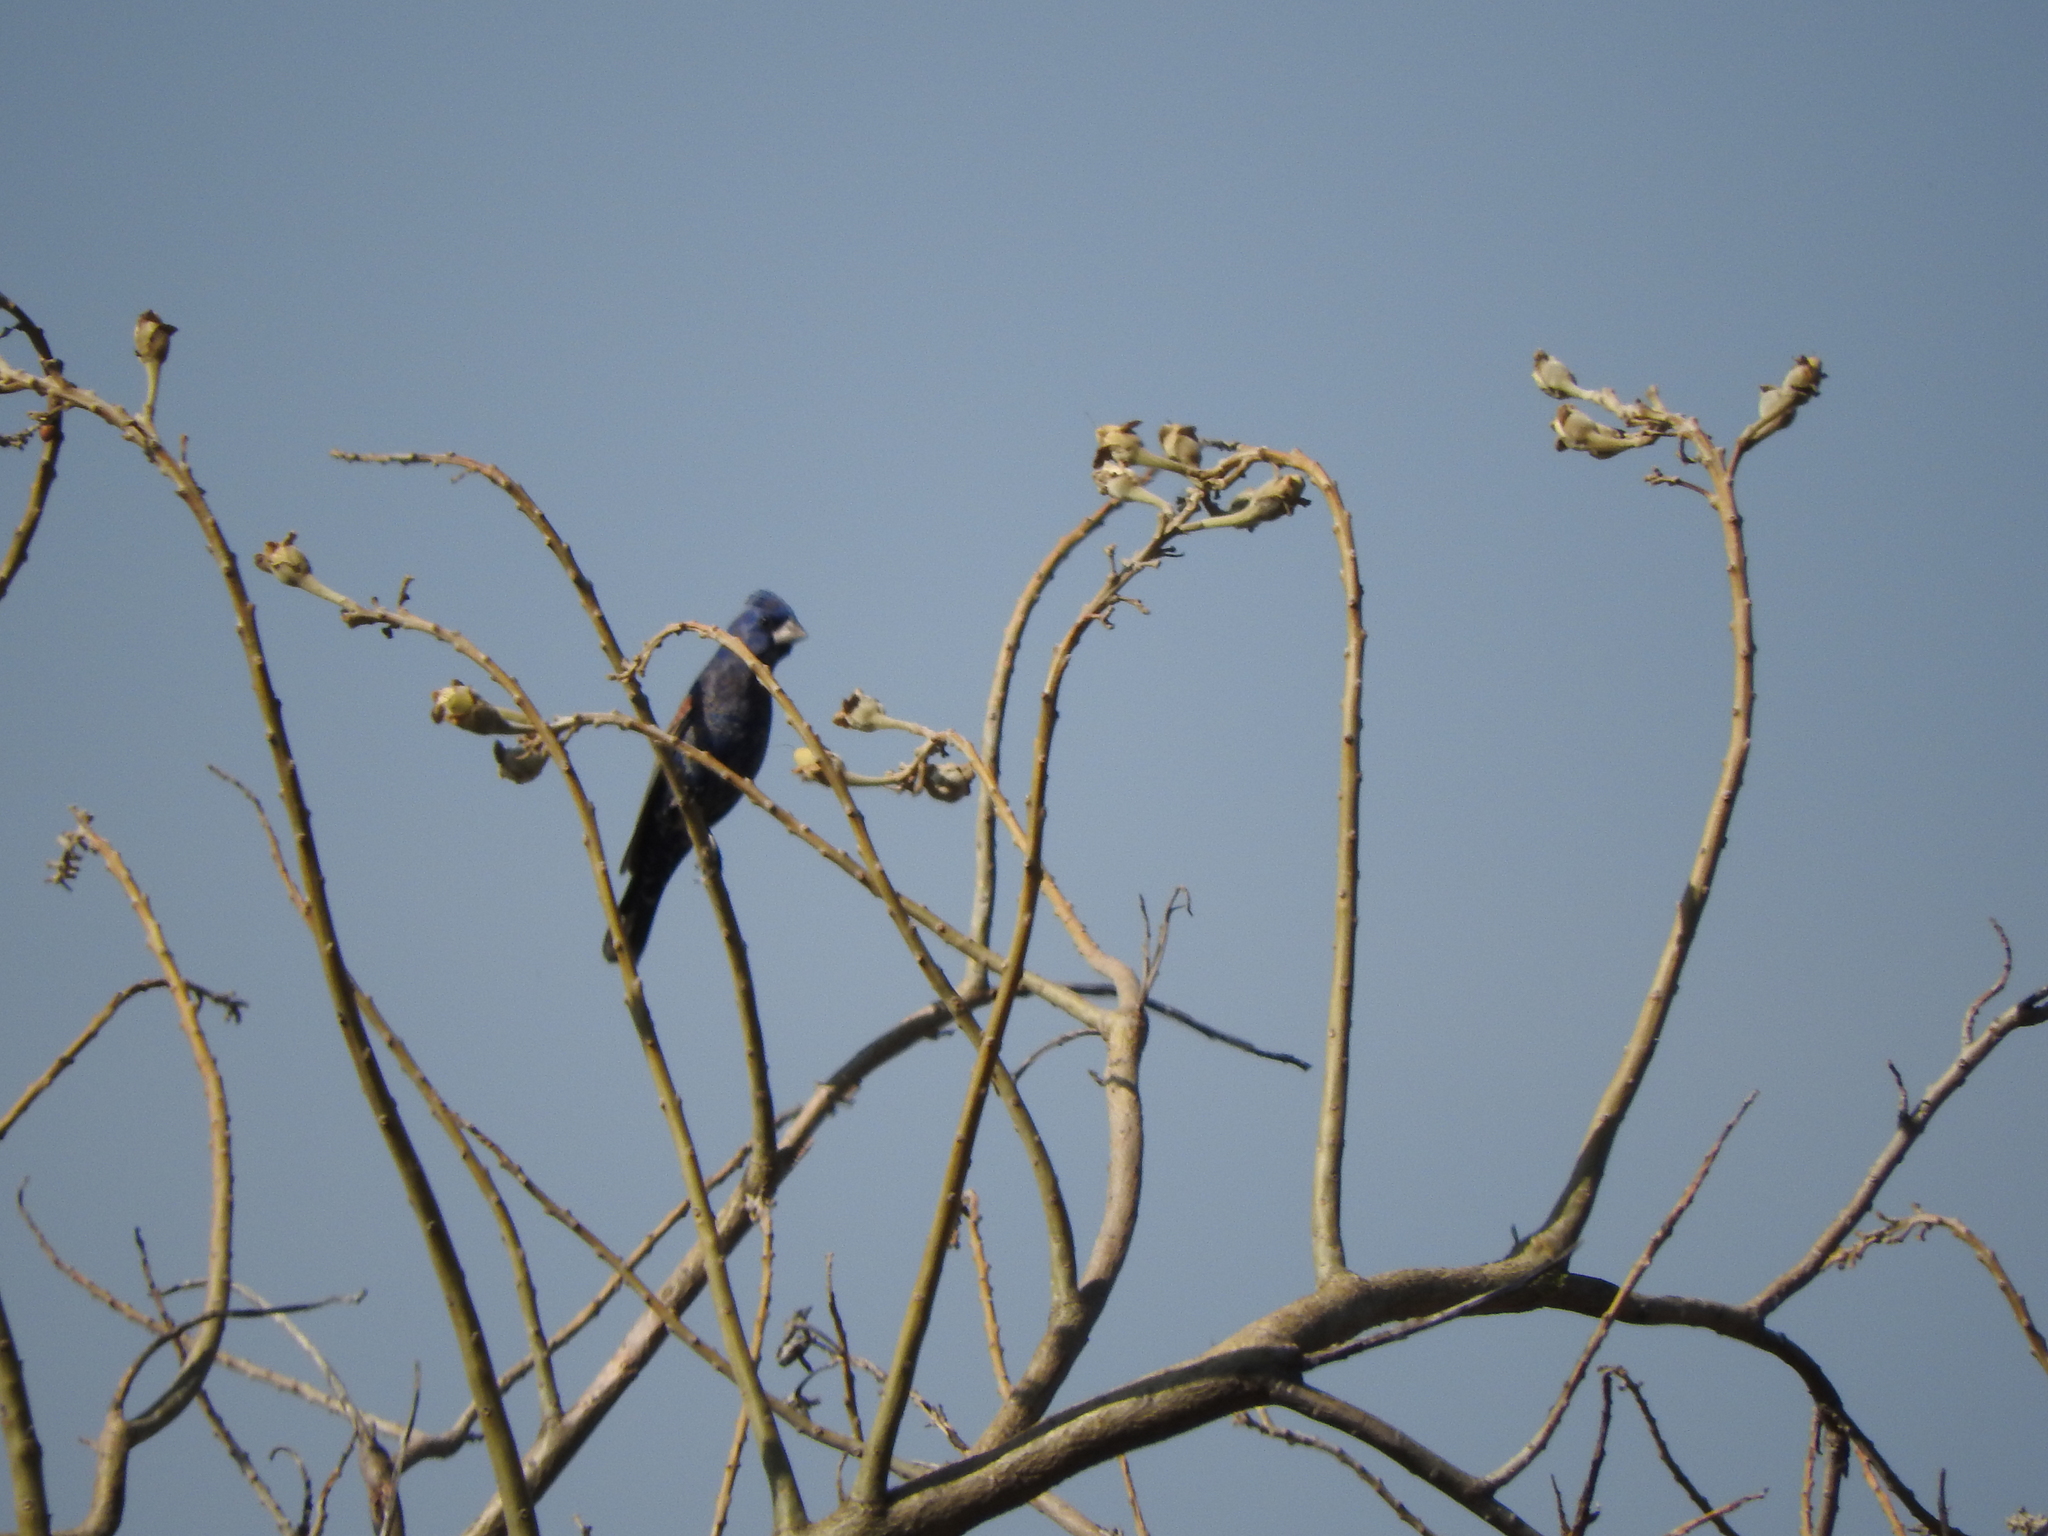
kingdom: Animalia
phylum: Chordata
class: Aves
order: Passeriformes
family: Cardinalidae
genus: Passerina
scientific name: Passerina caerulea
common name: Blue grosbeak
